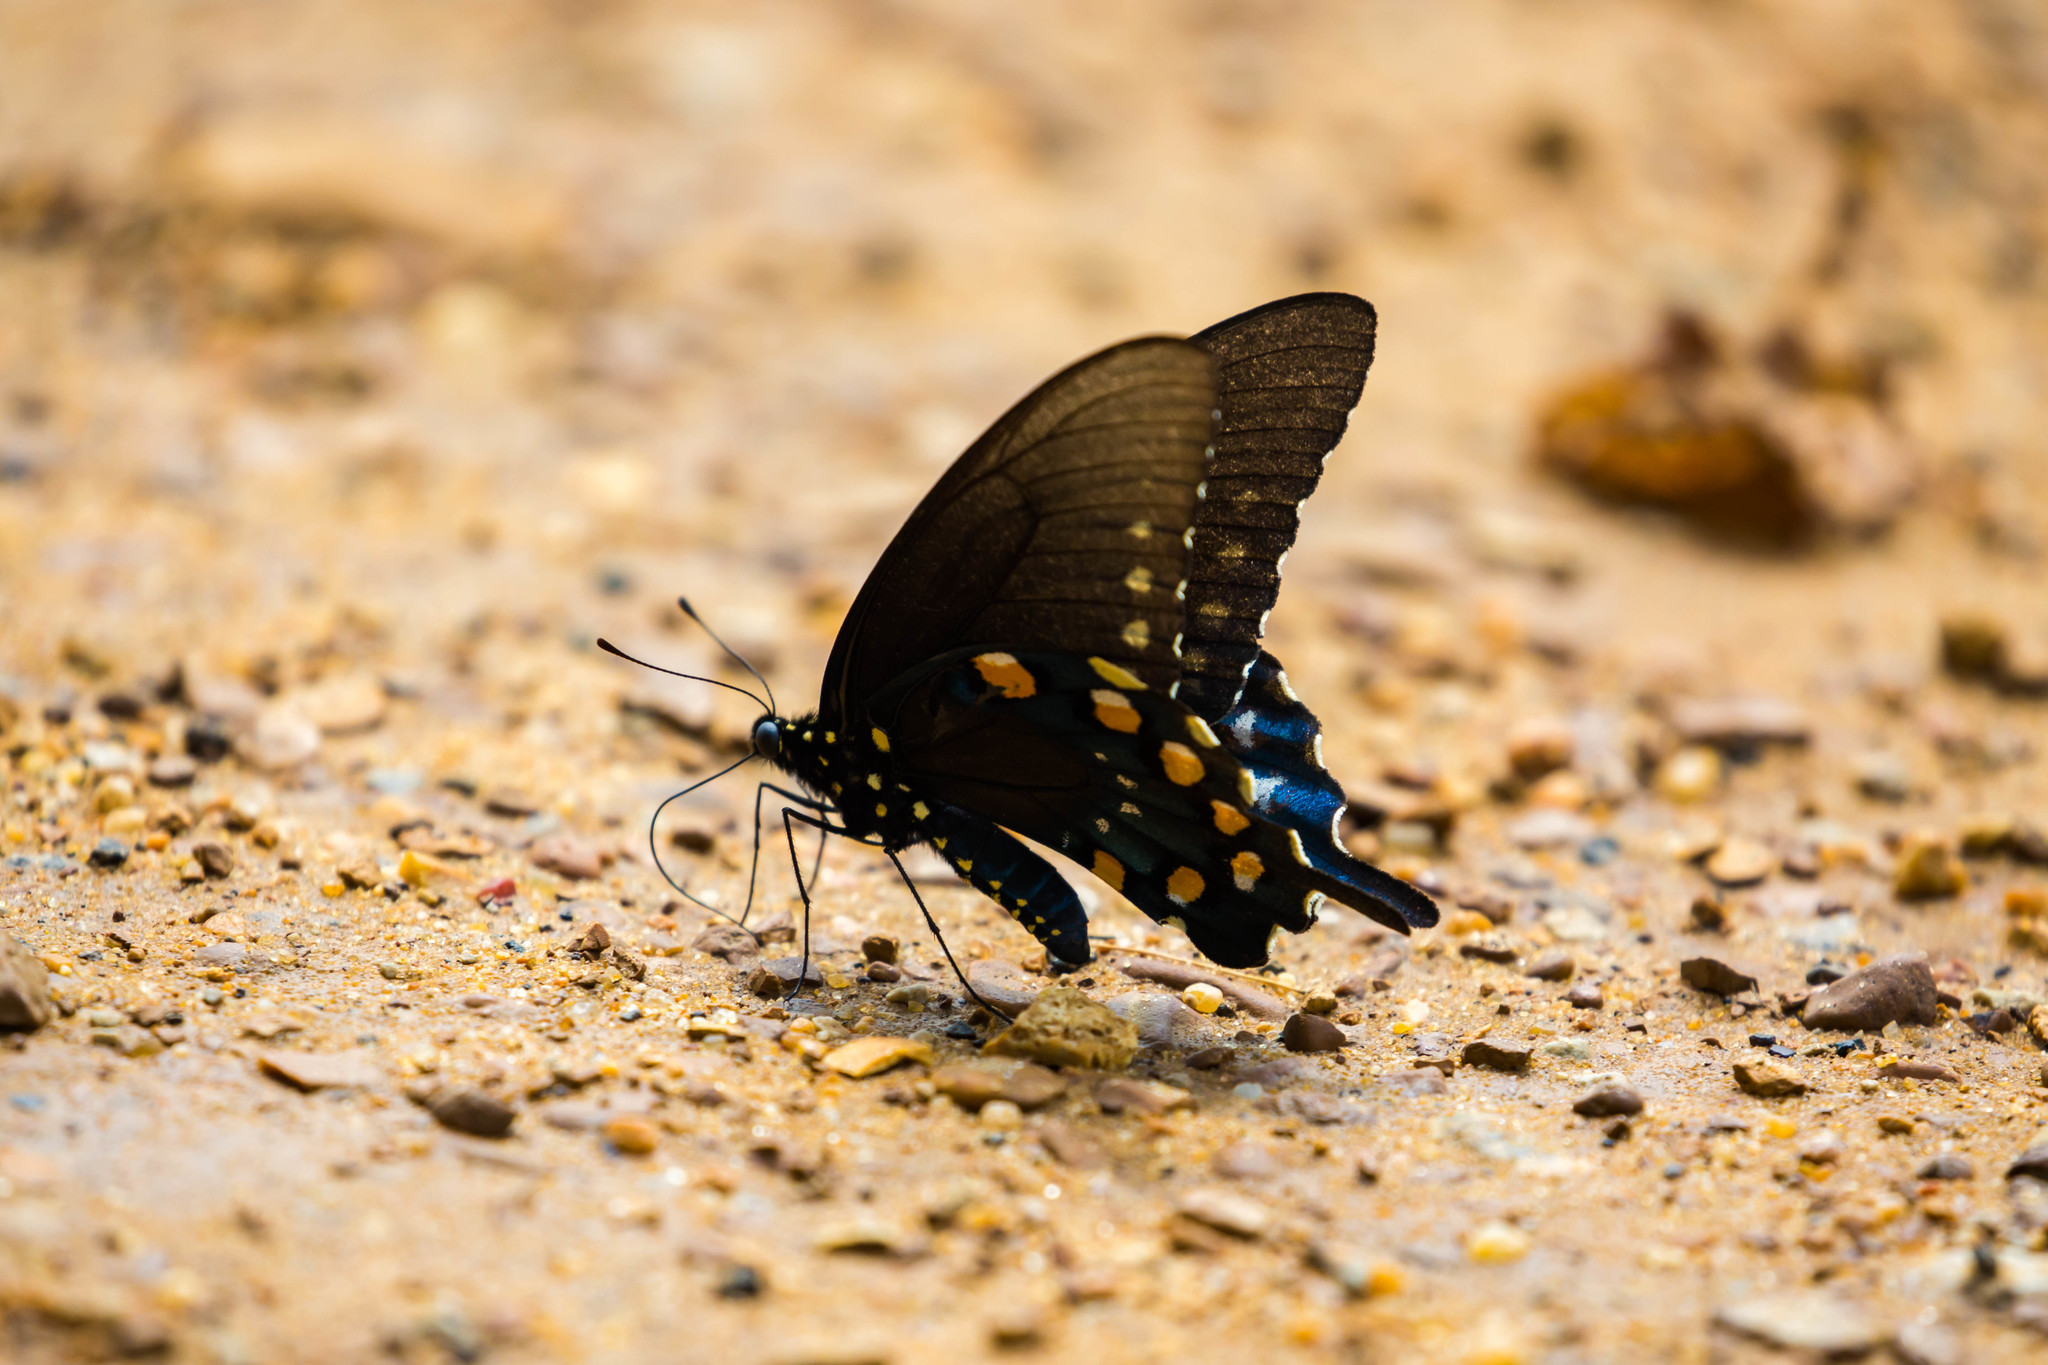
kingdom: Animalia
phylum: Arthropoda
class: Insecta
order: Lepidoptera
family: Papilionidae
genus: Battus
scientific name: Battus philenor
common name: Pipevine swallowtail
